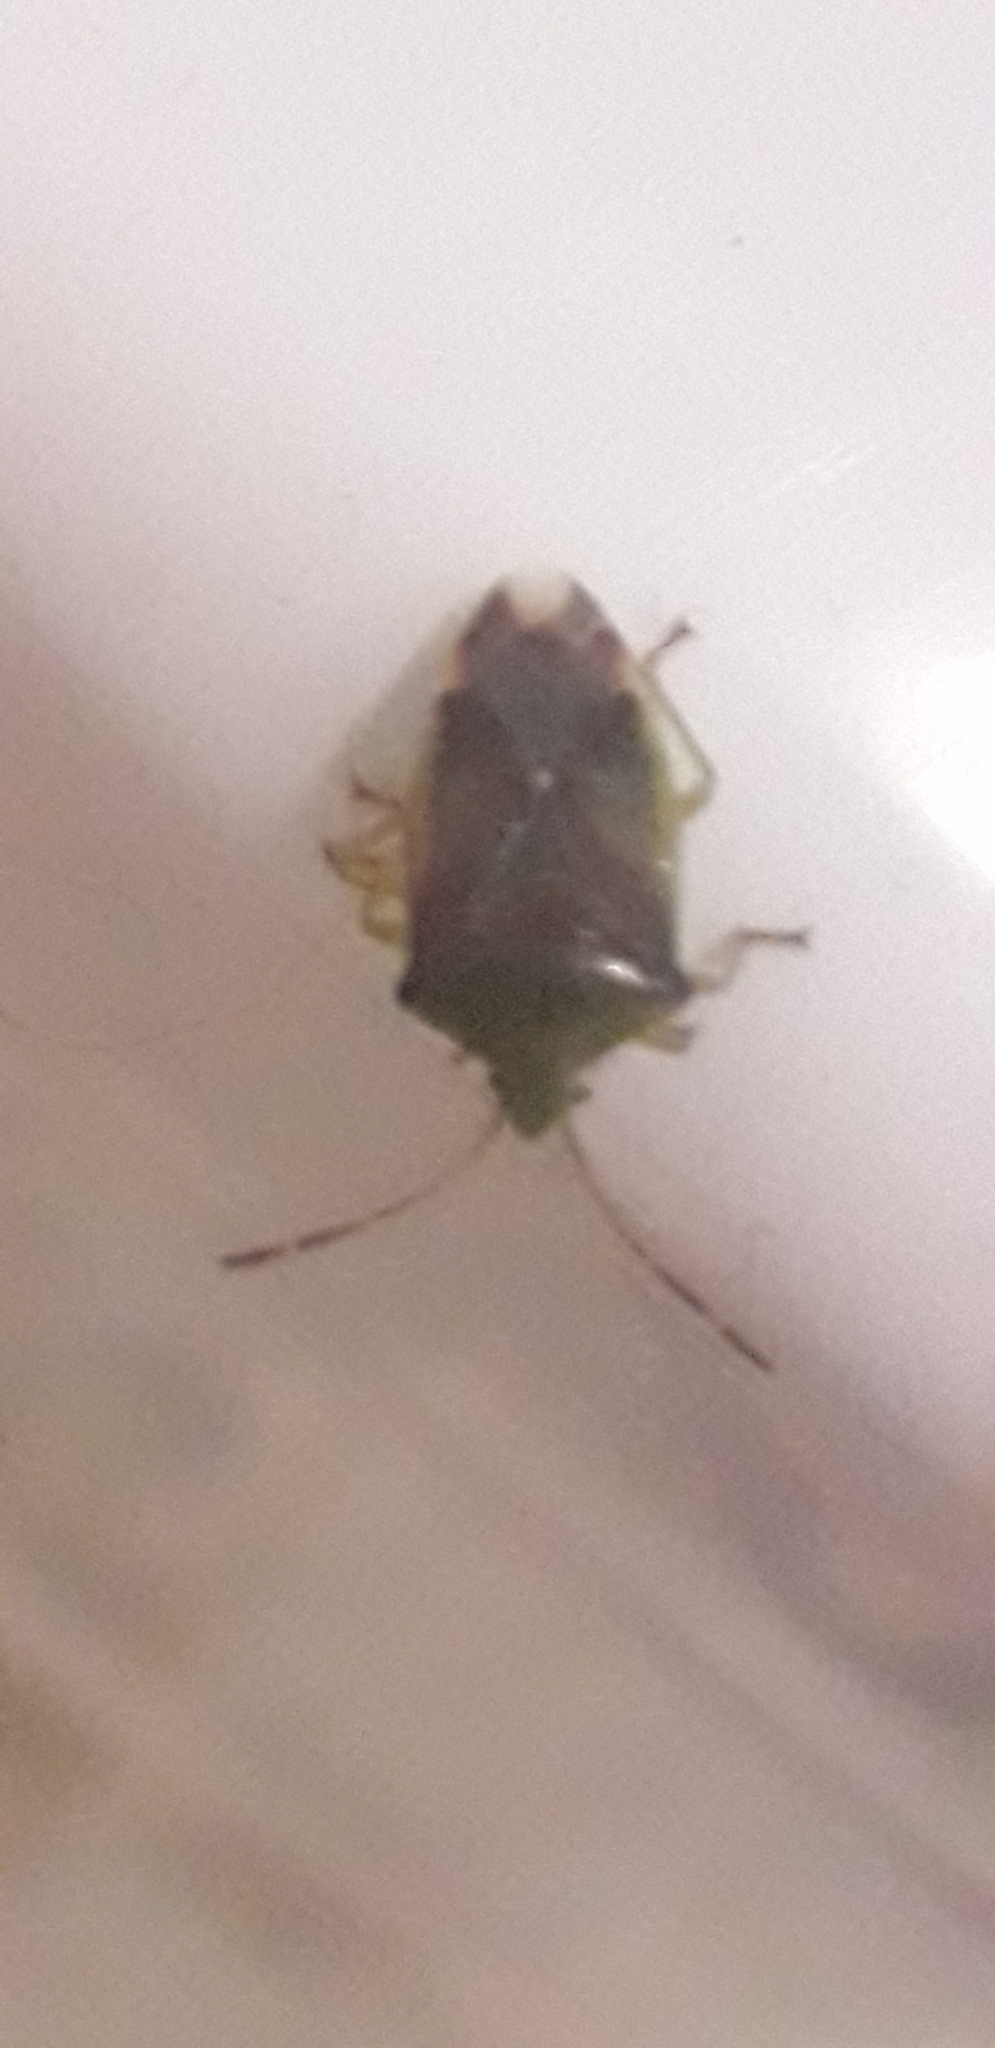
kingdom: Animalia
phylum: Arthropoda
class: Insecta
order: Hemiptera
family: Acanthosomatidae
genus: Elasmostethus
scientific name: Elasmostethus interstinctus
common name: Birch shieldbug
